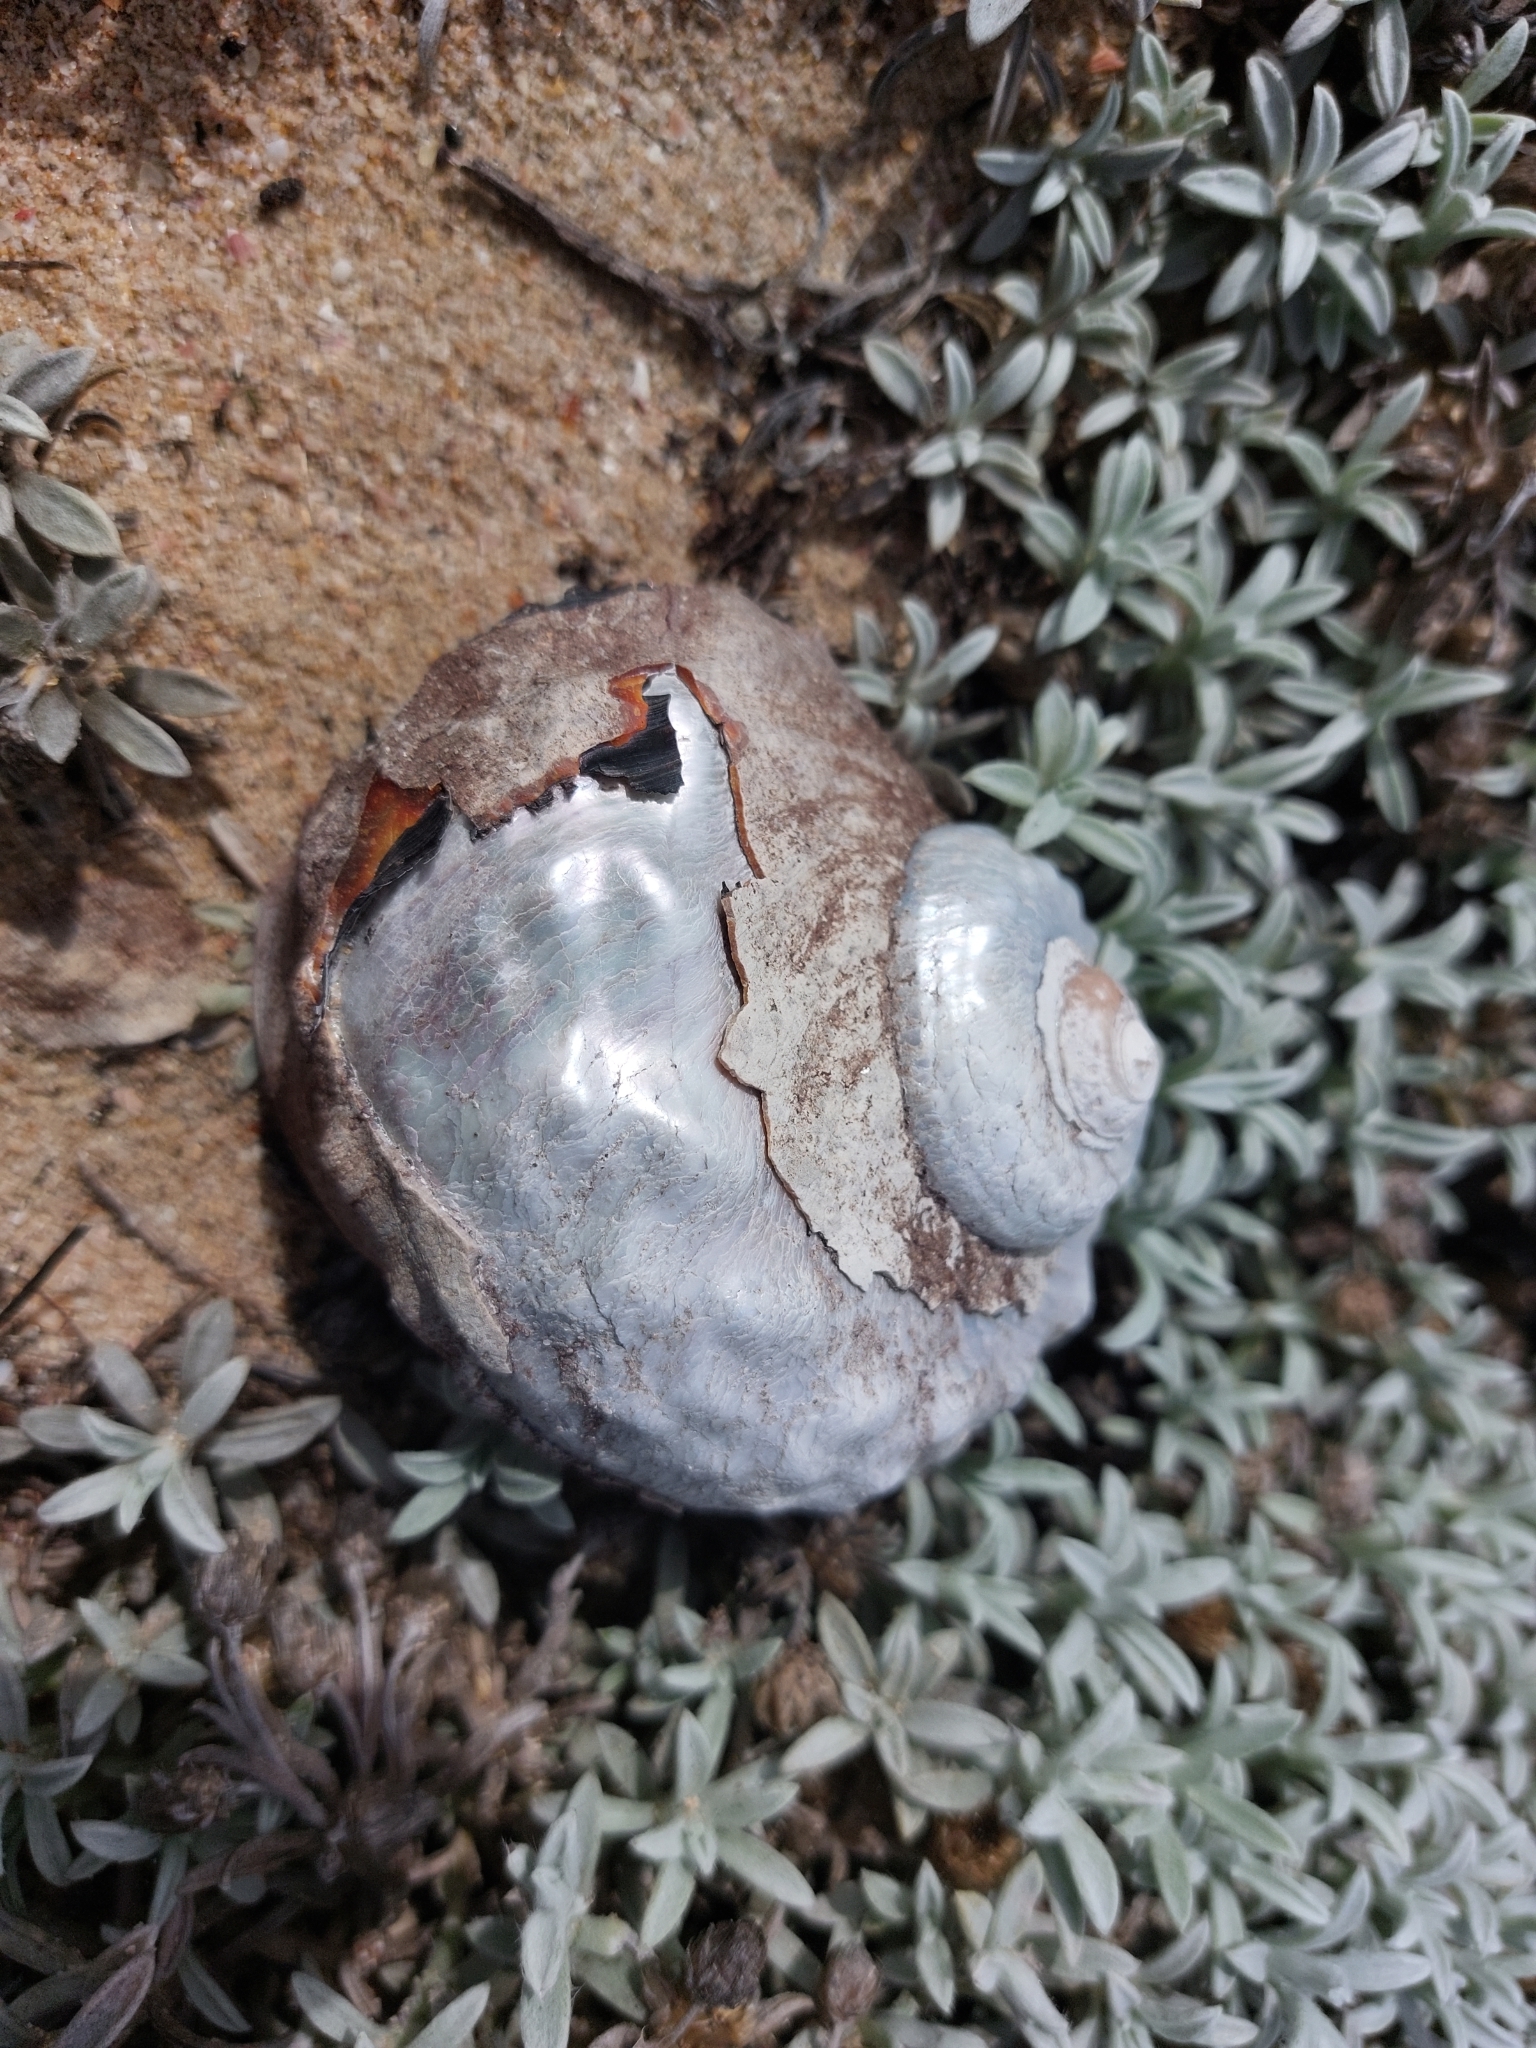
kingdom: Animalia
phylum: Mollusca
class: Gastropoda
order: Trochida
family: Turbinidae
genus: Turbo
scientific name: Turbo sarmaticus
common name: South african turban
